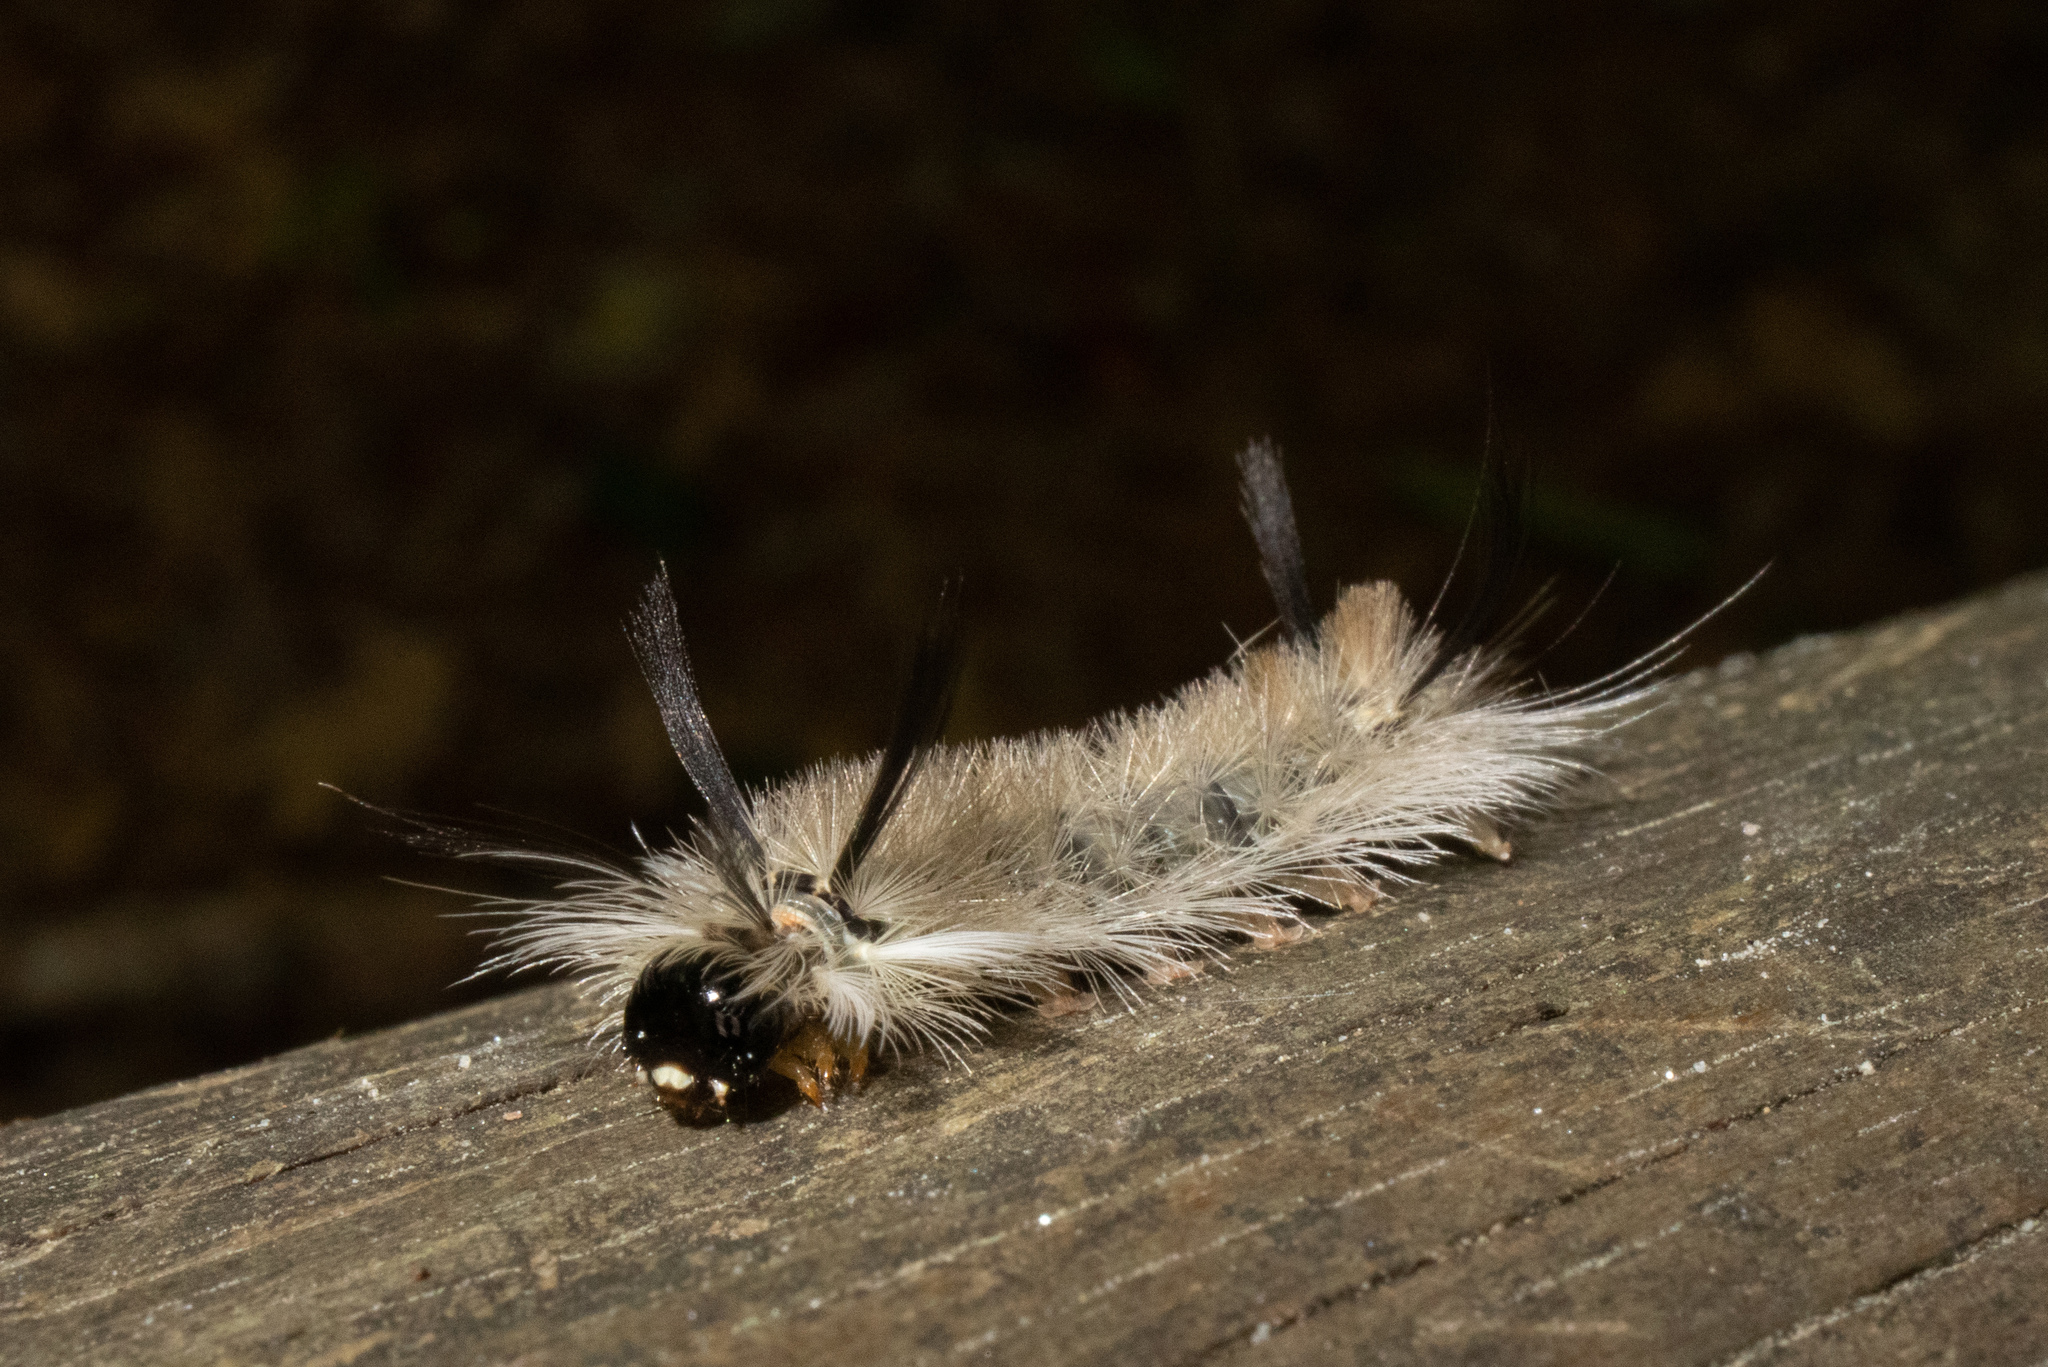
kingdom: Animalia
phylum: Arthropoda
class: Insecta
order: Lepidoptera
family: Erebidae
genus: Halysidota
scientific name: Halysidota tessellaris
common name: Banded tussock moth
